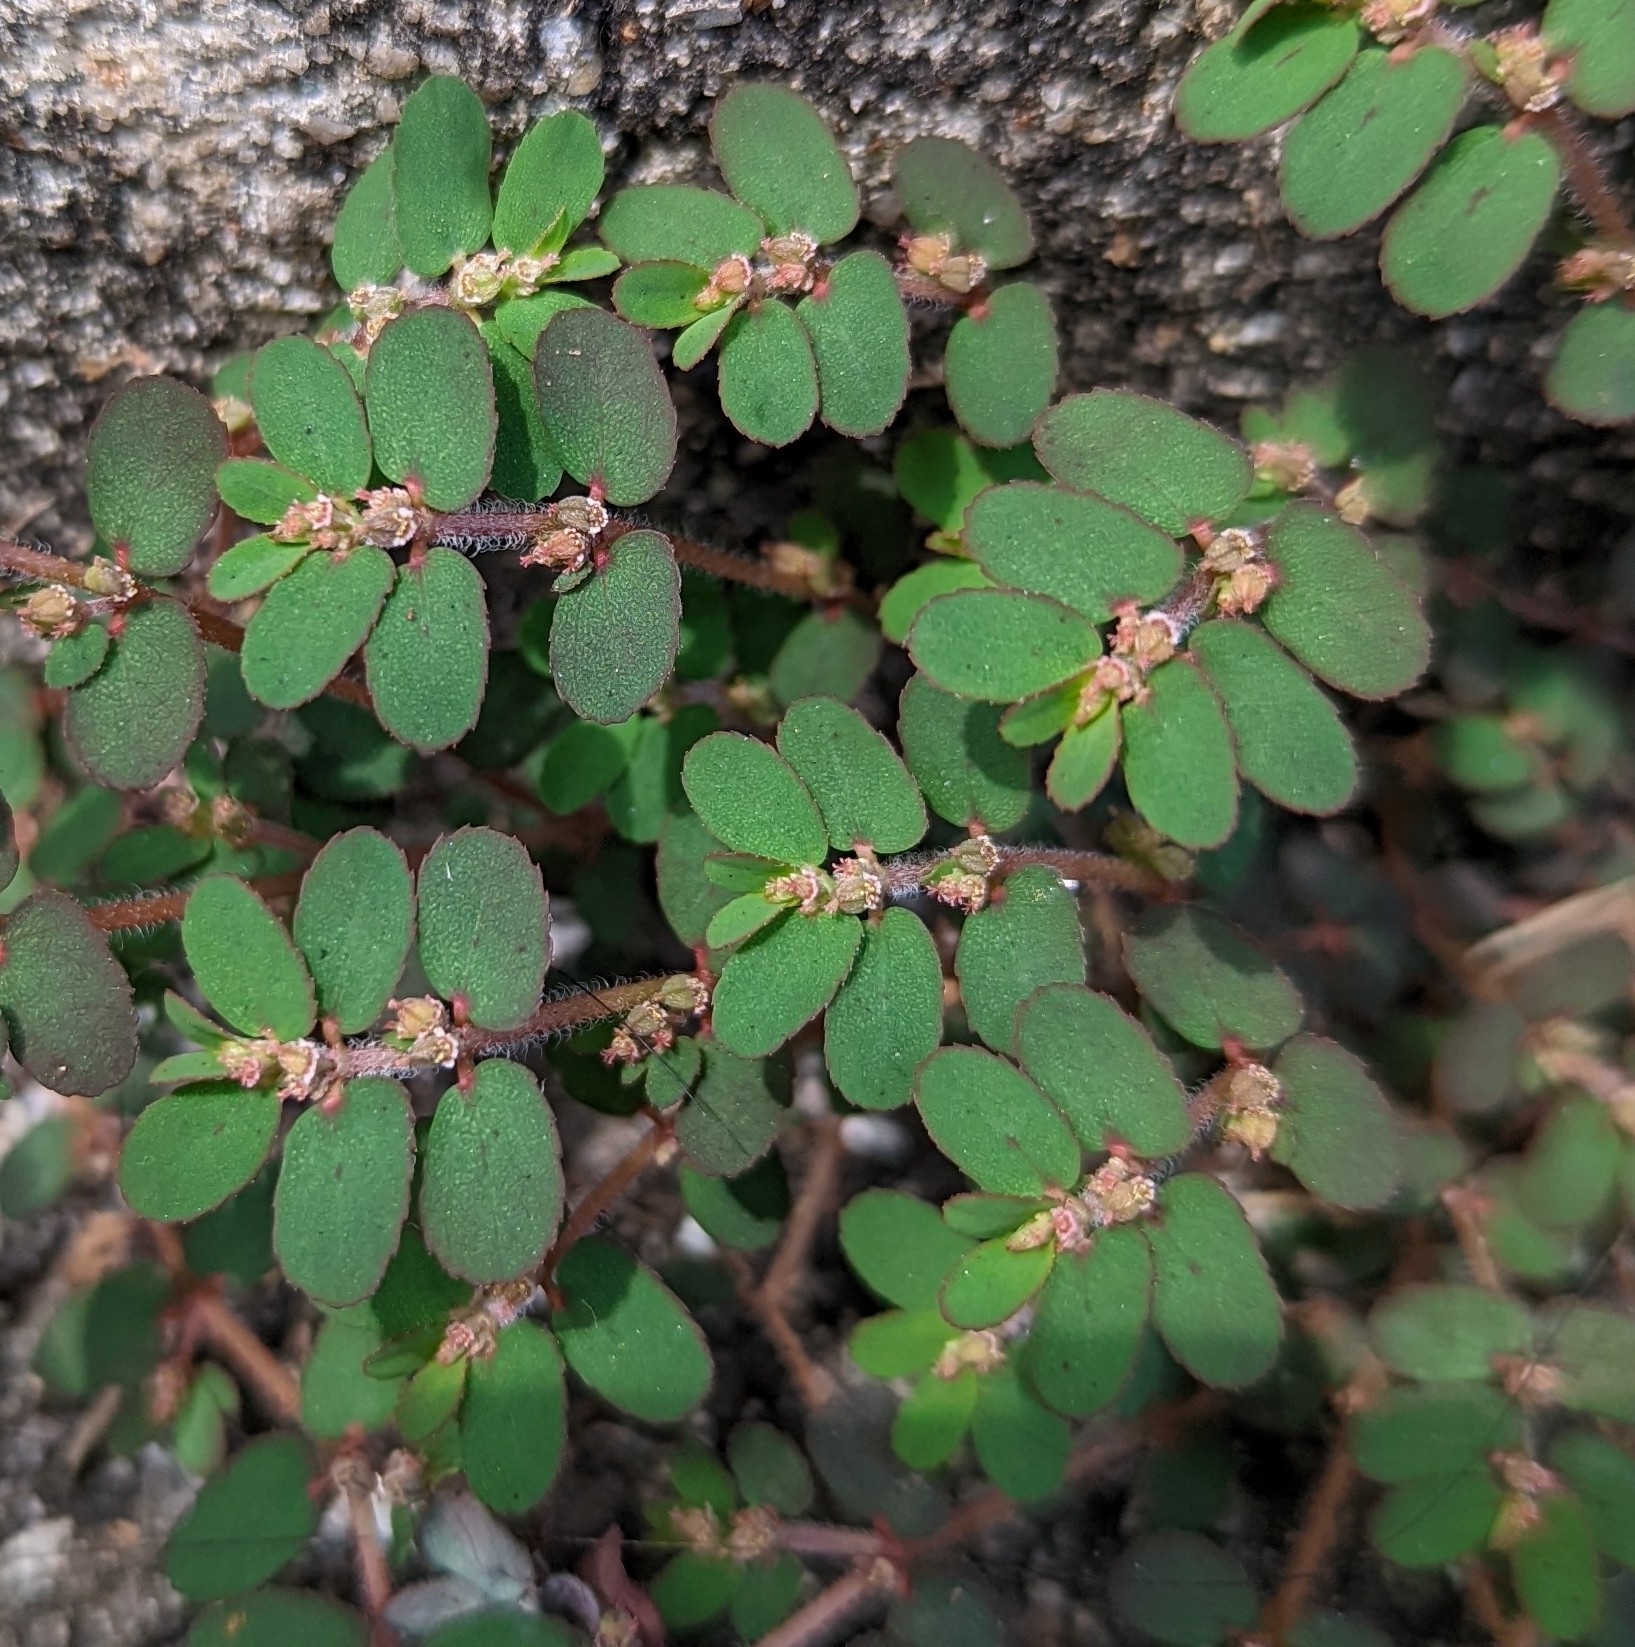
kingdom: Plantae
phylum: Tracheophyta
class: Magnoliopsida
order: Malpighiales
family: Euphorbiaceae
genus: Euphorbia
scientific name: Euphorbia thymifolia
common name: Gulf sandmat
